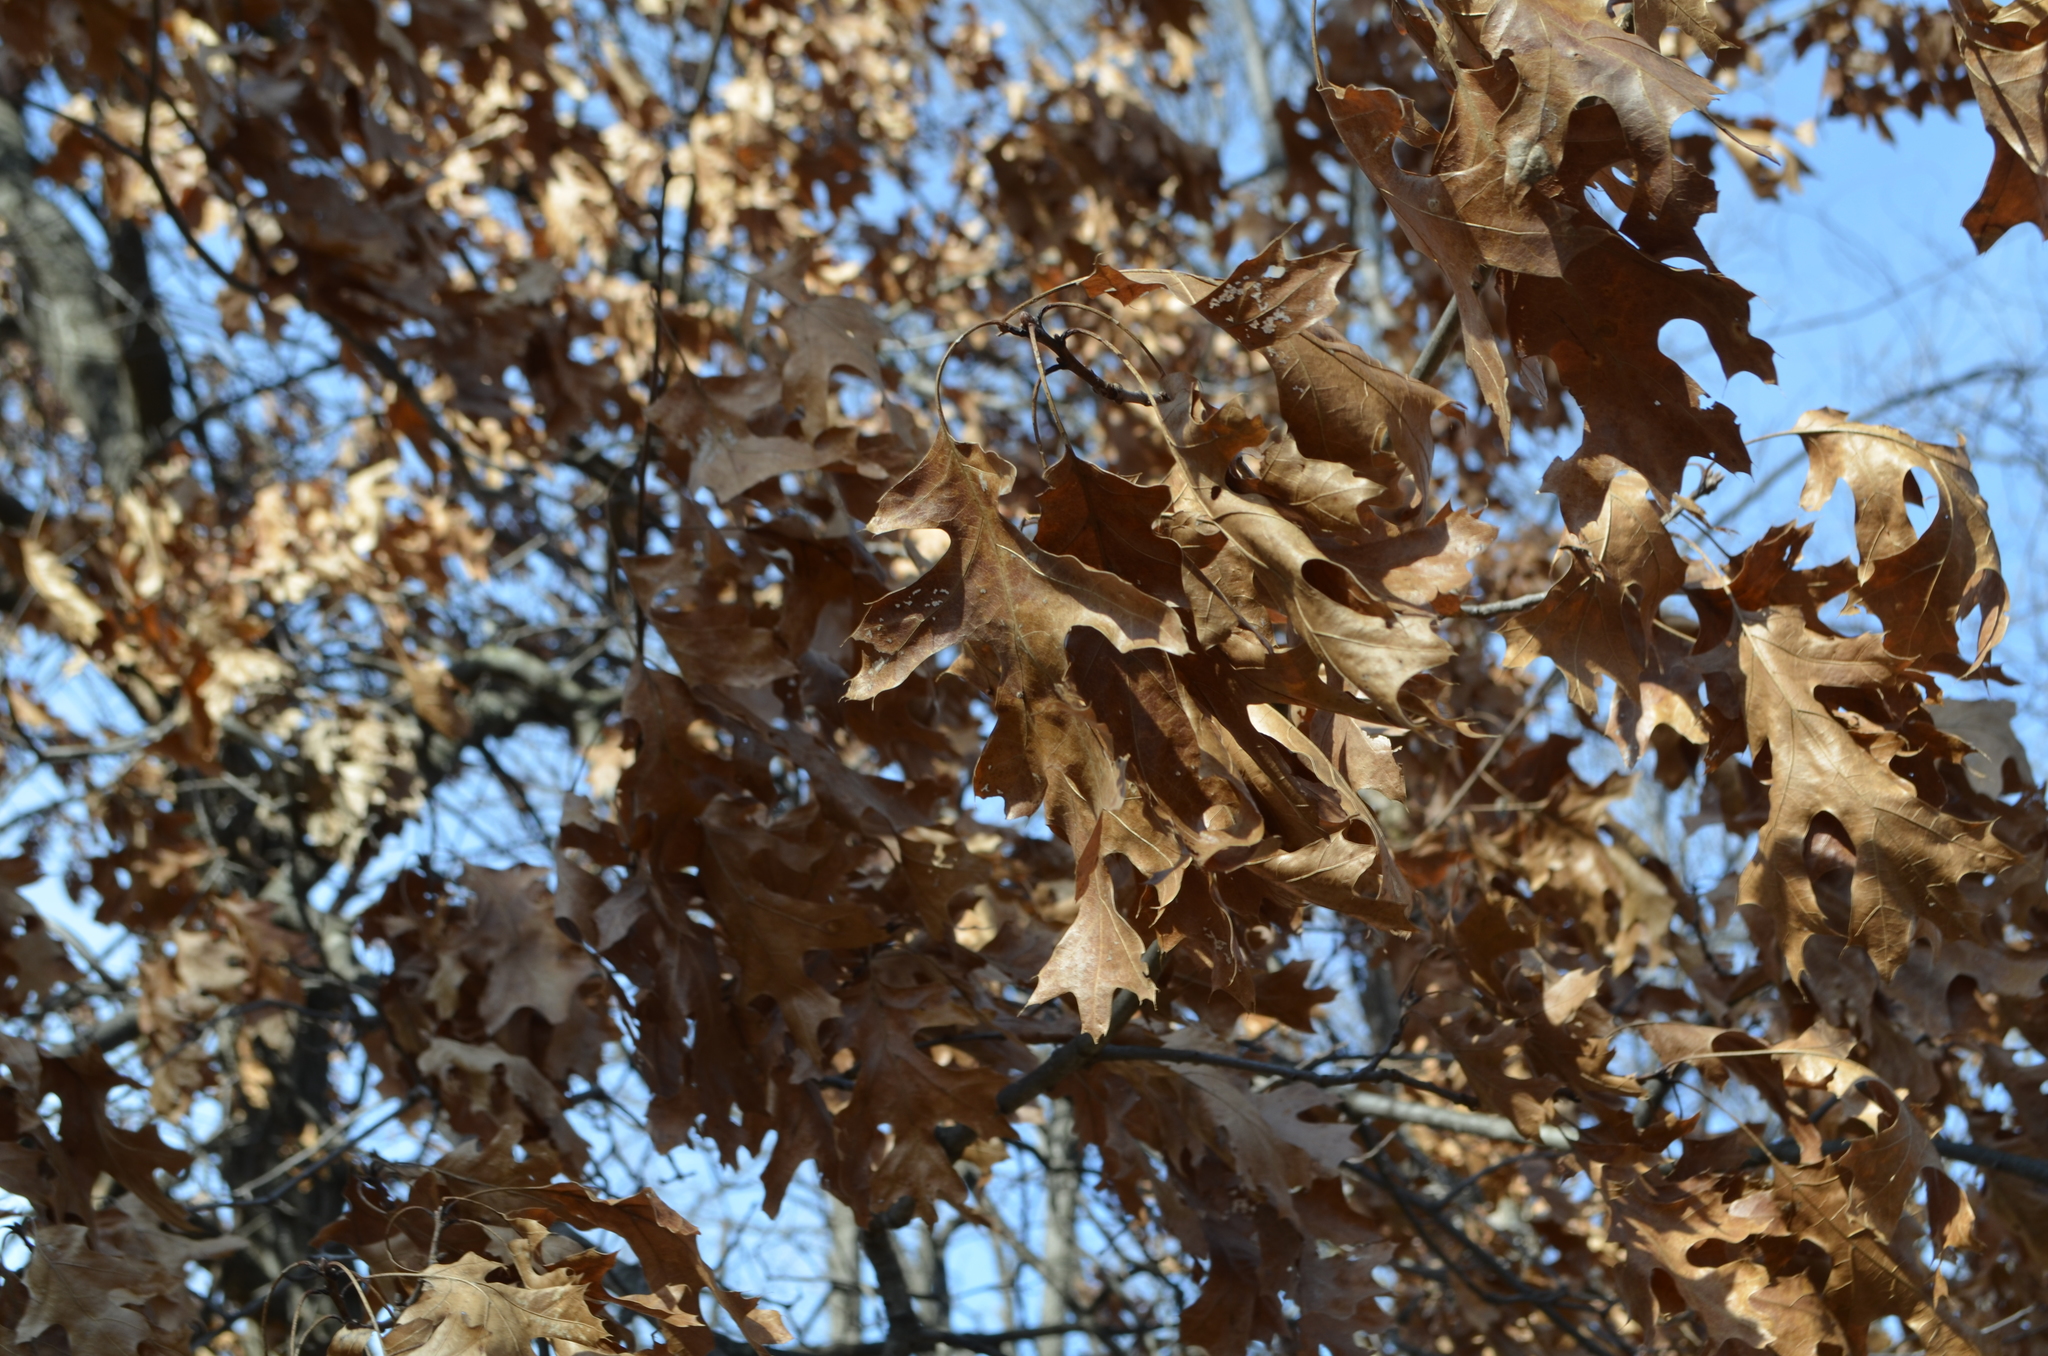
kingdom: Plantae
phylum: Tracheophyta
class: Magnoliopsida
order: Fagales
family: Fagaceae
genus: Quercus
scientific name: Quercus rubra
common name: Red oak
